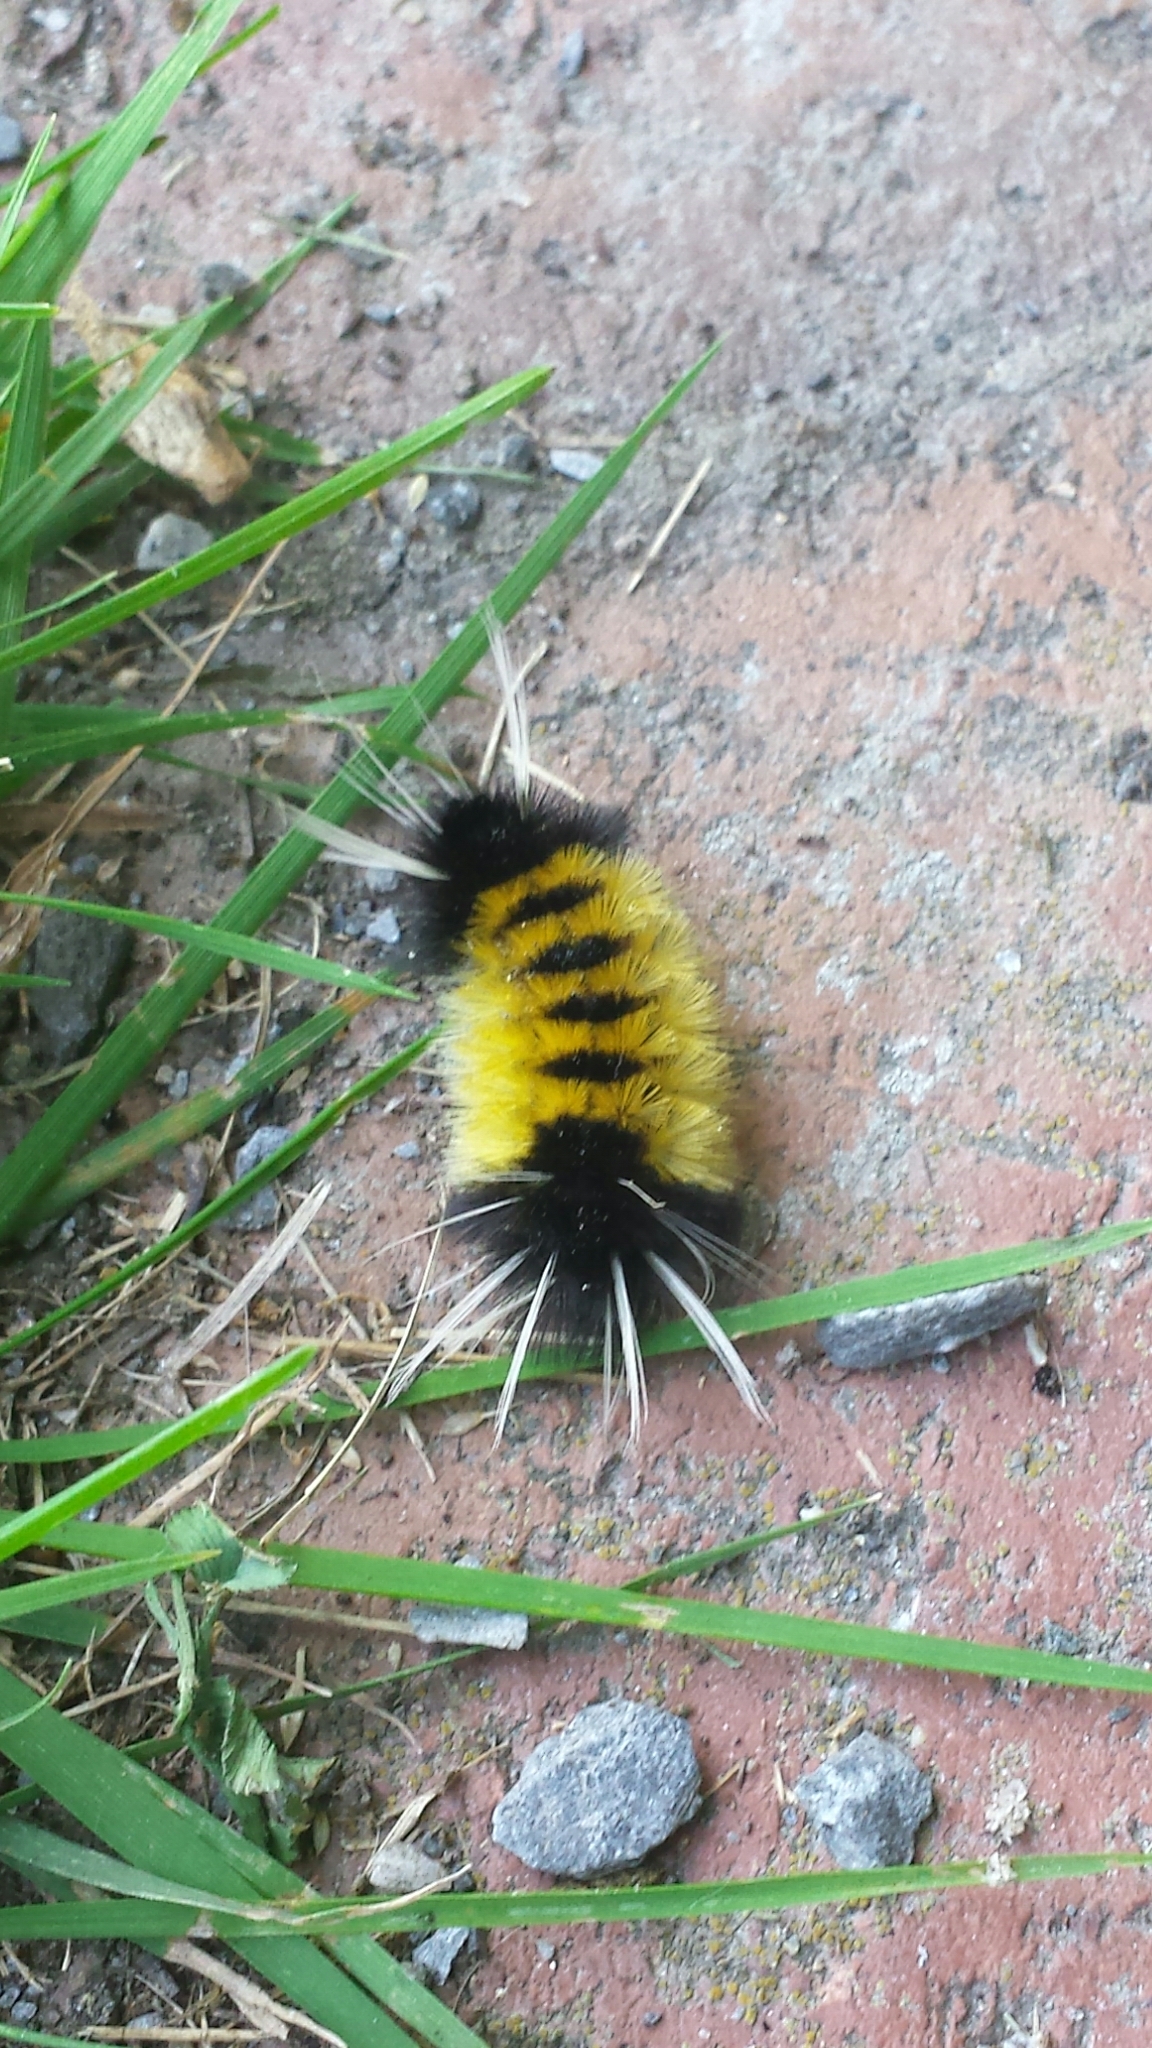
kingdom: Animalia
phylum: Arthropoda
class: Insecta
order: Lepidoptera
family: Erebidae
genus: Lophocampa
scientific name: Lophocampa maculata
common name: Spotted tussock moth
